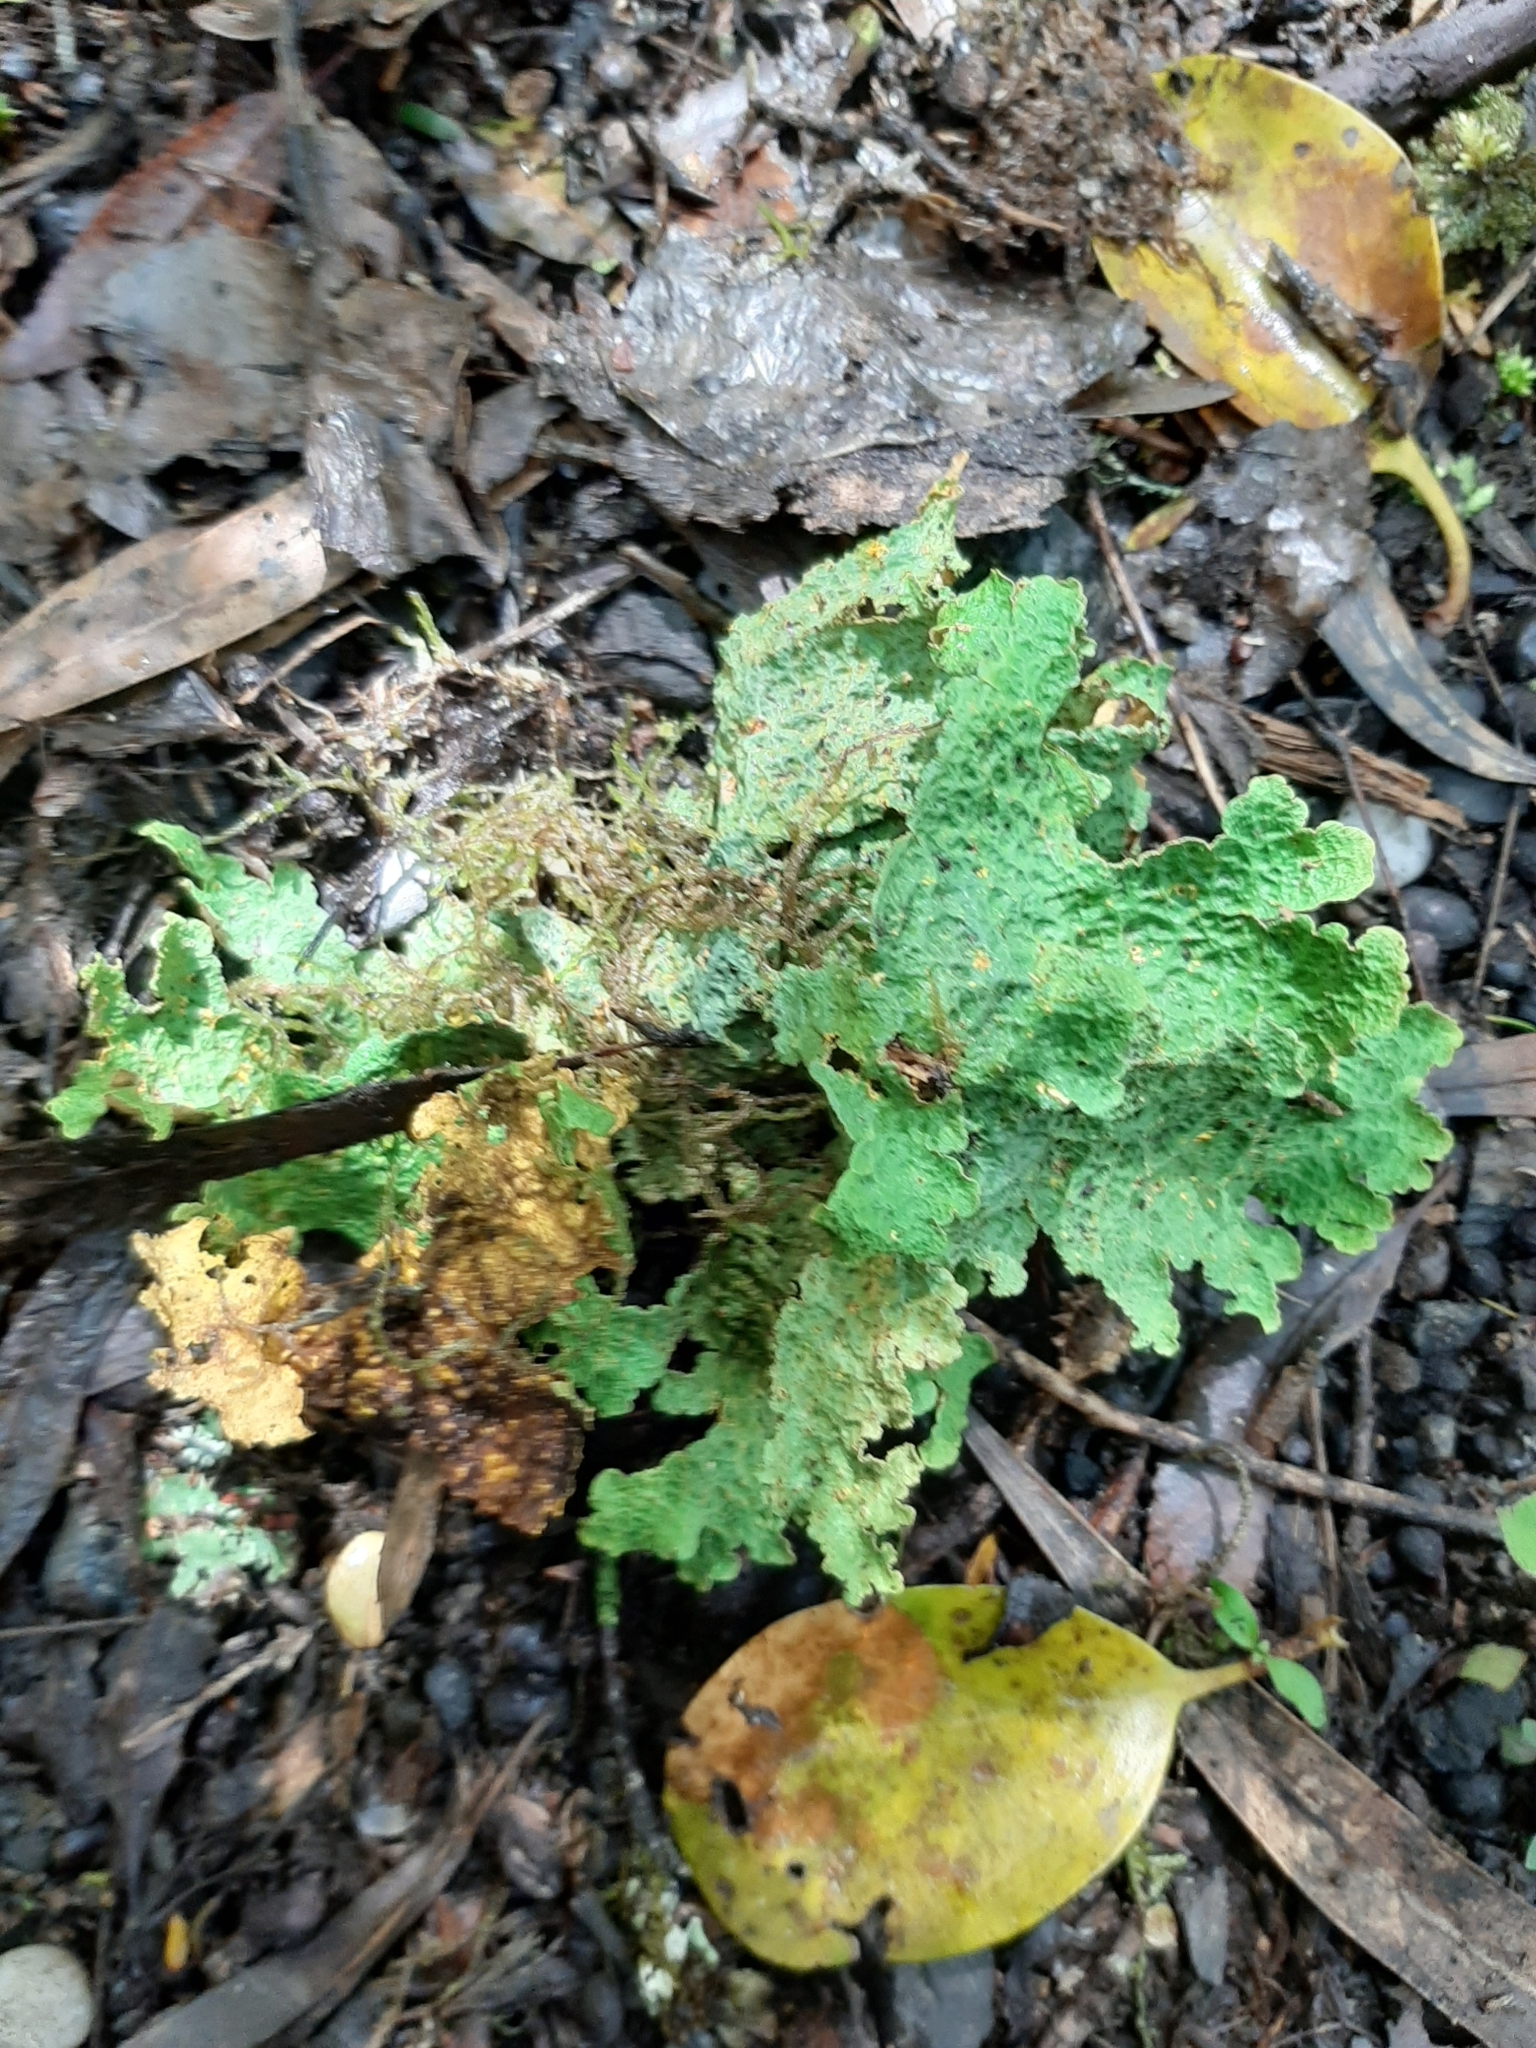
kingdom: Fungi
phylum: Ascomycota
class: Lecanoromycetes
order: Peltigerales
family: Lobariaceae
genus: Yarrumia
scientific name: Yarrumia coronata
